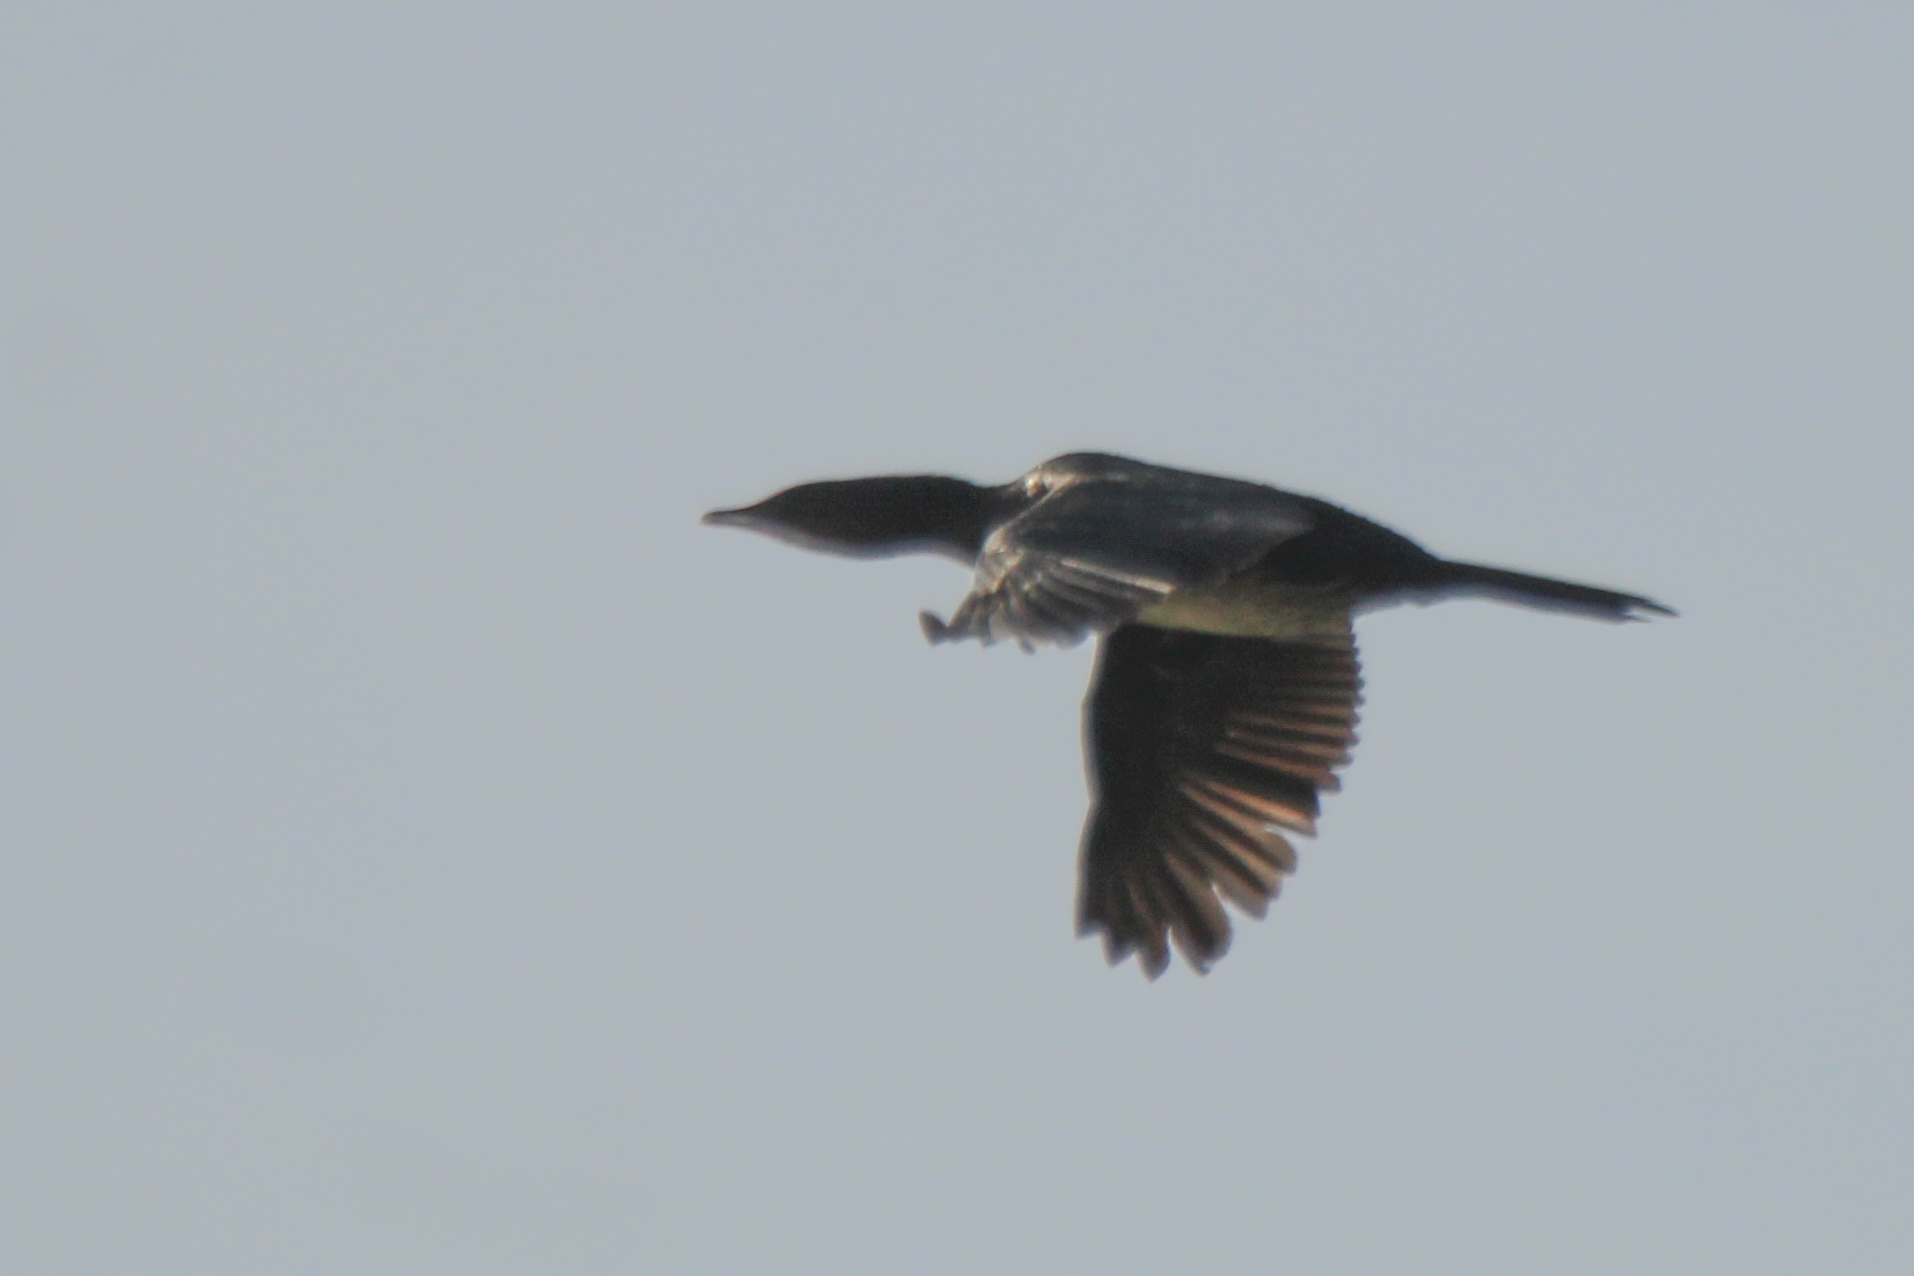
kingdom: Animalia
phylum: Chordata
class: Aves
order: Suliformes
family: Phalacrocoracidae
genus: Microcarbo
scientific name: Microcarbo pygmaeus
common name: Pygmy cormorant
